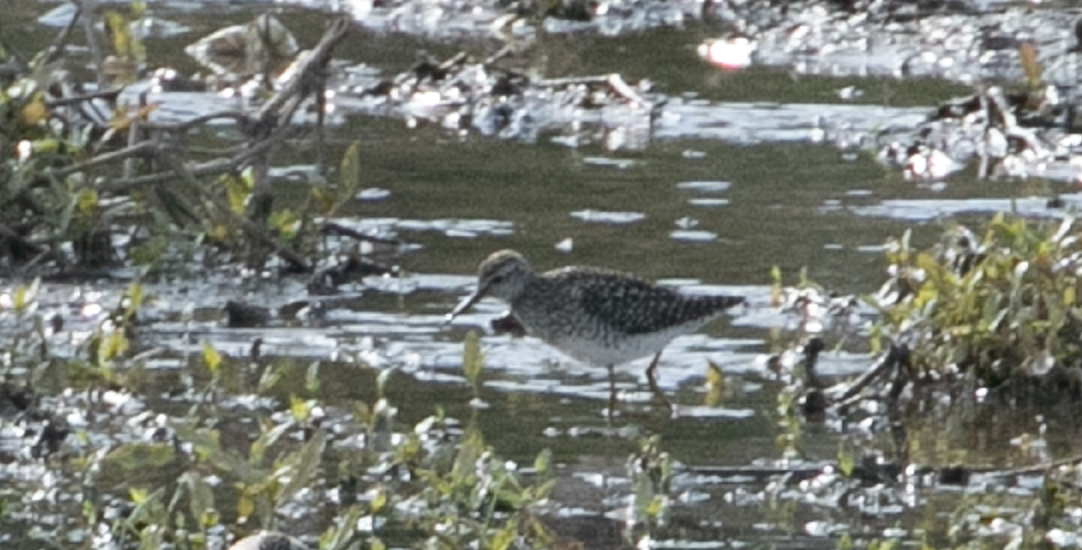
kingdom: Animalia
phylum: Chordata
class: Aves
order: Charadriiformes
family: Scolopacidae
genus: Tringa
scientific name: Tringa glareola
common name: Wood sandpiper
